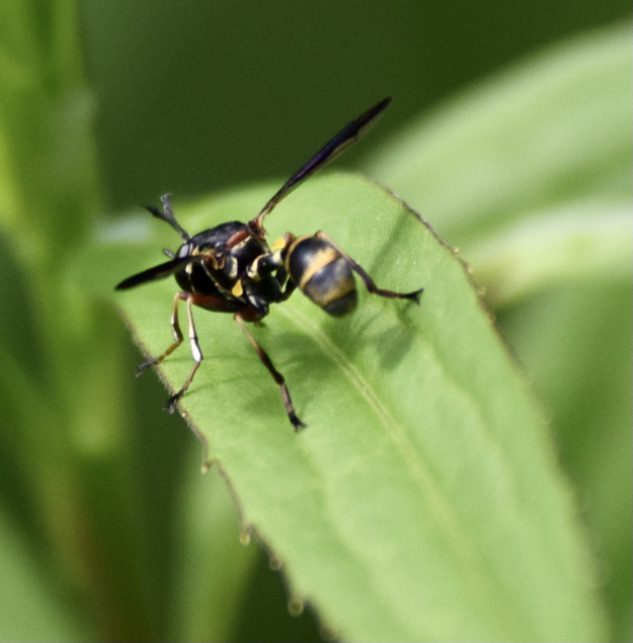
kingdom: Animalia
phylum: Arthropoda
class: Insecta
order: Diptera
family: Conopidae
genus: Physocephala
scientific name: Physocephala marginata
